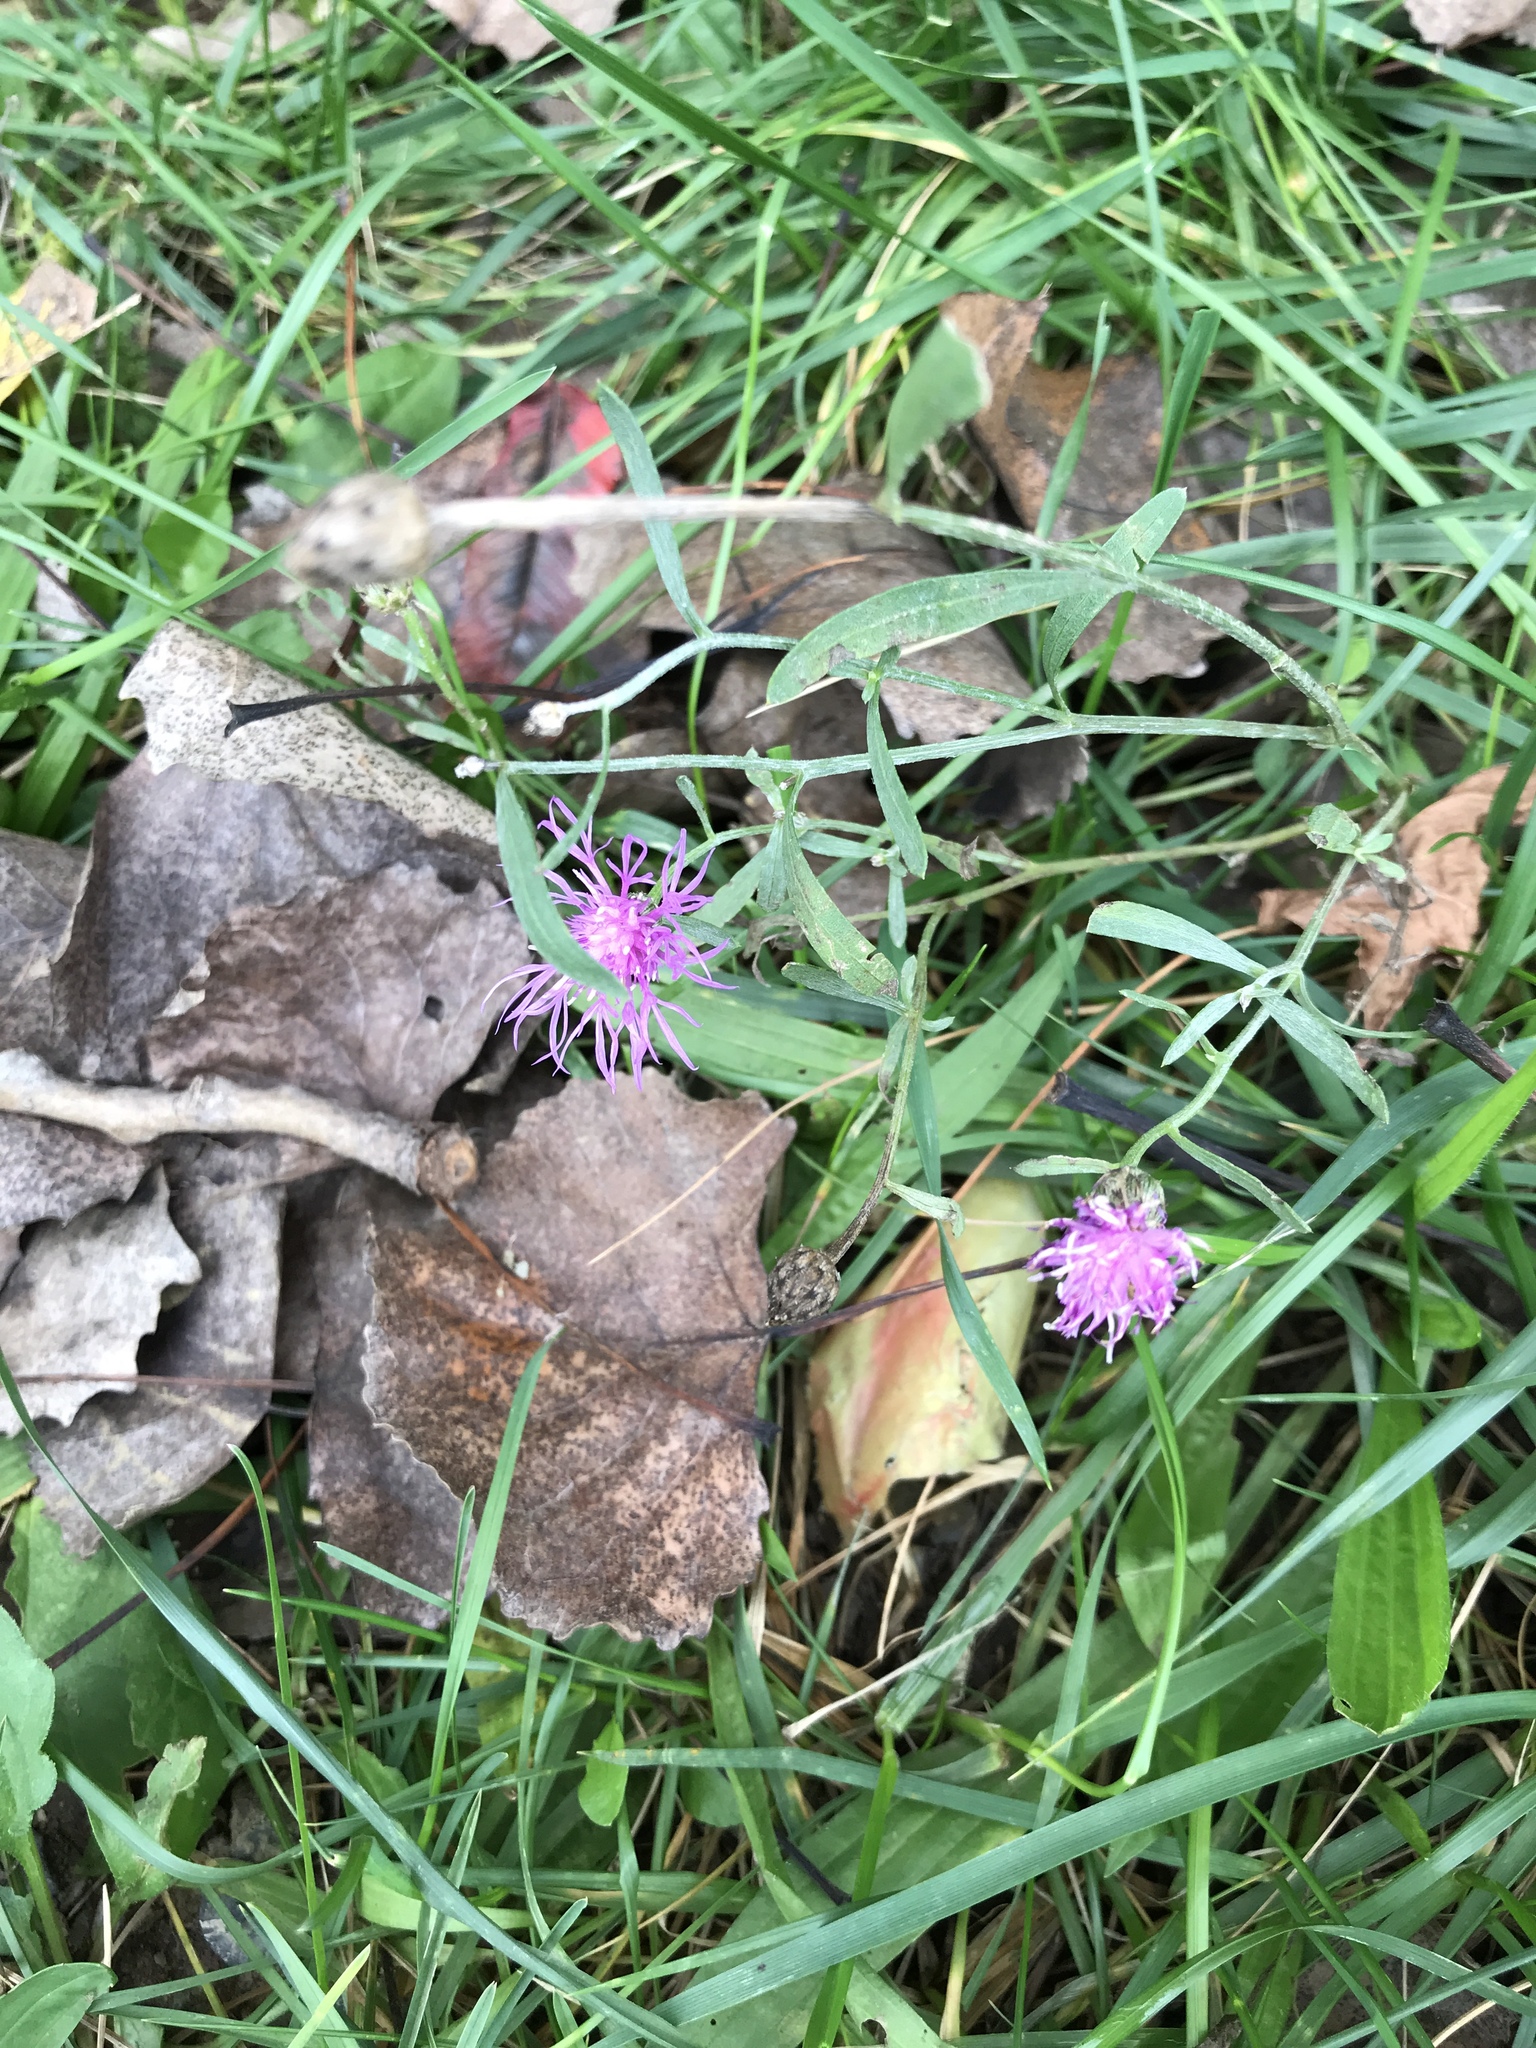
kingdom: Plantae
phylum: Tracheophyta
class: Magnoliopsida
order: Asterales
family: Asteraceae
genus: Centaurea
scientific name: Centaurea stoebe
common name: Spotted knapweed
